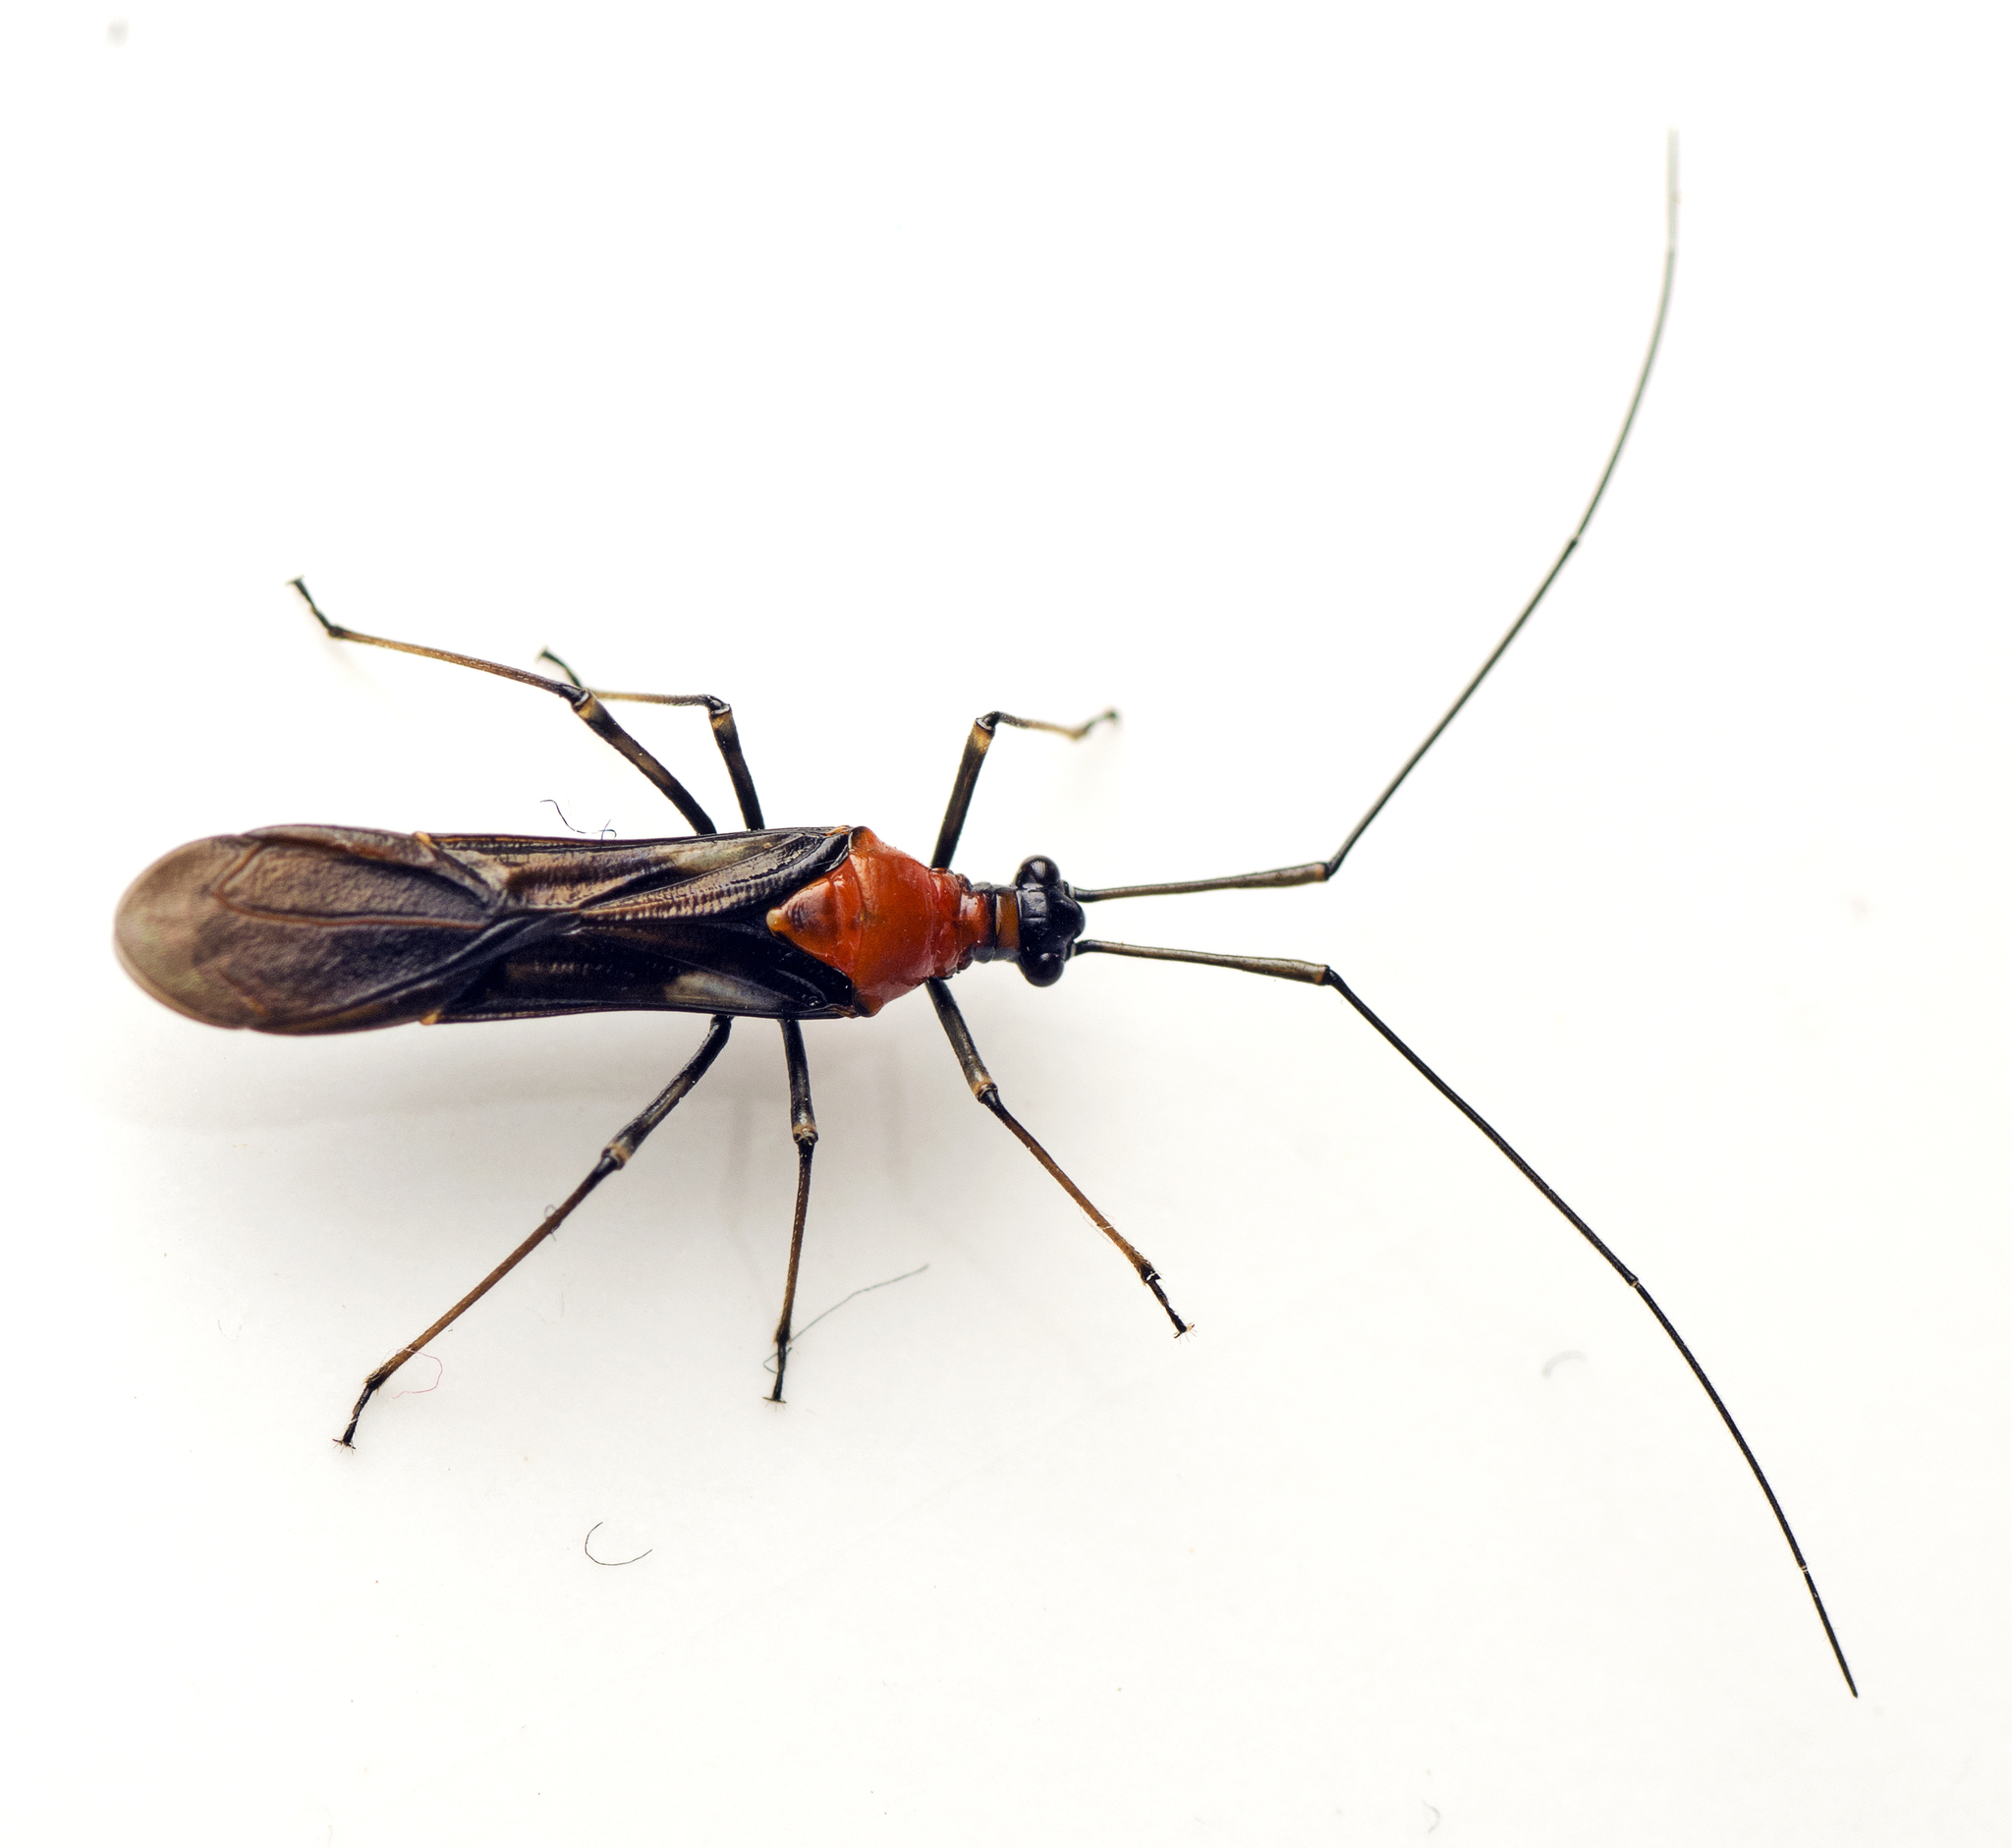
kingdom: Animalia
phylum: Arthropoda
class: Insecta
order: Hemiptera
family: Miridae
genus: Rayieria
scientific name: Rayieria basifer
